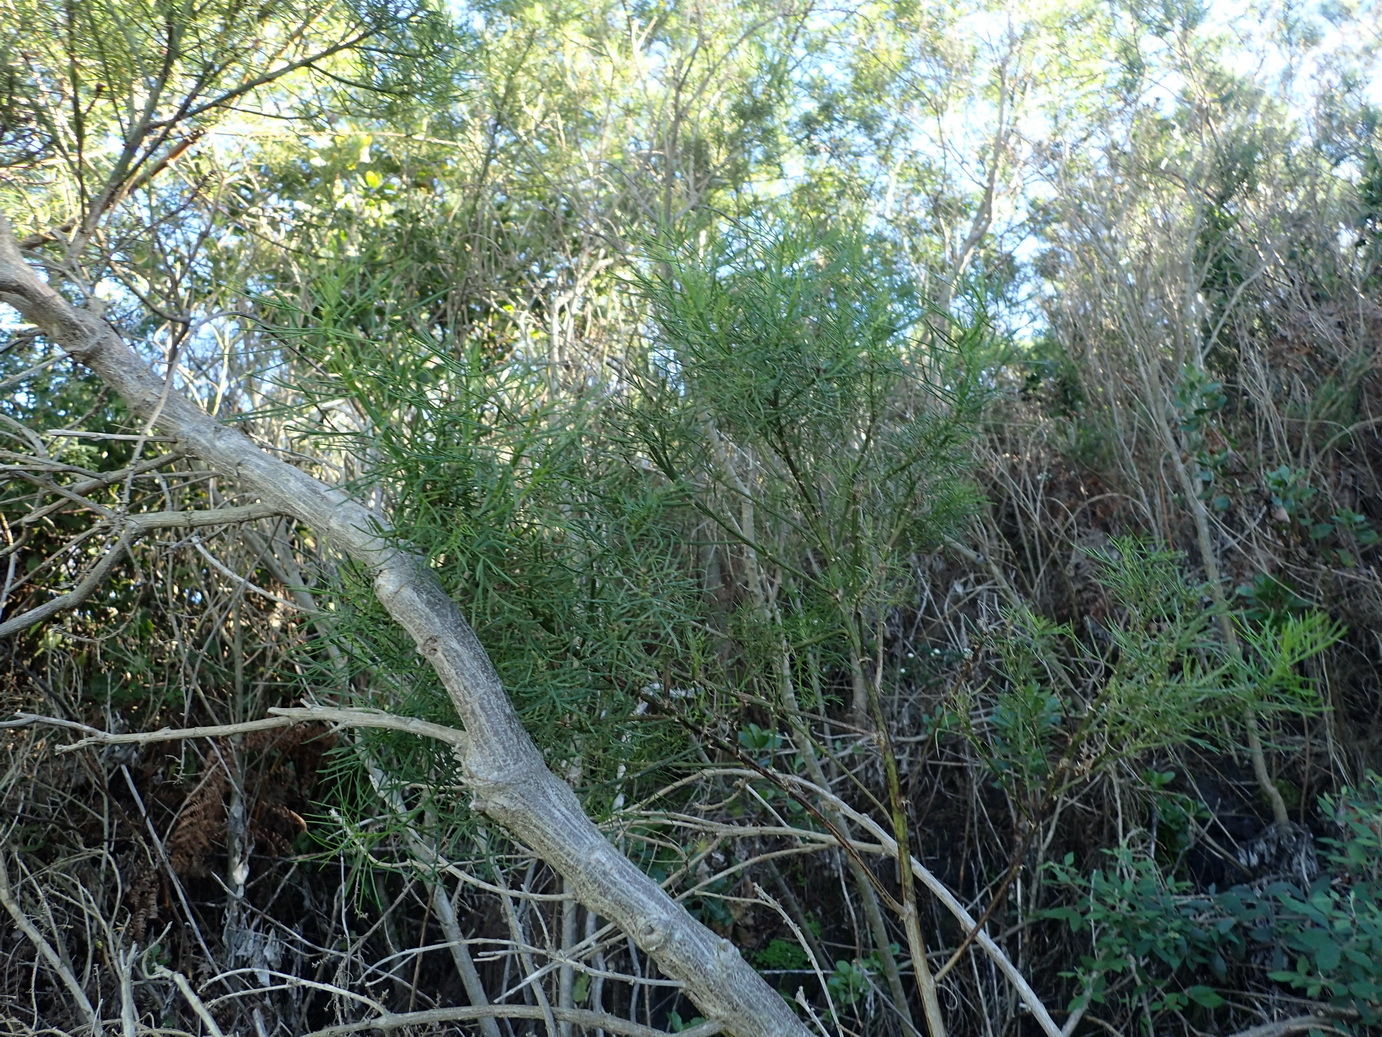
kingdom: Plantae
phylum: Tracheophyta
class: Magnoliopsida
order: Fabales
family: Fabaceae
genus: Psoralea
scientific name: Psoralea arborea
